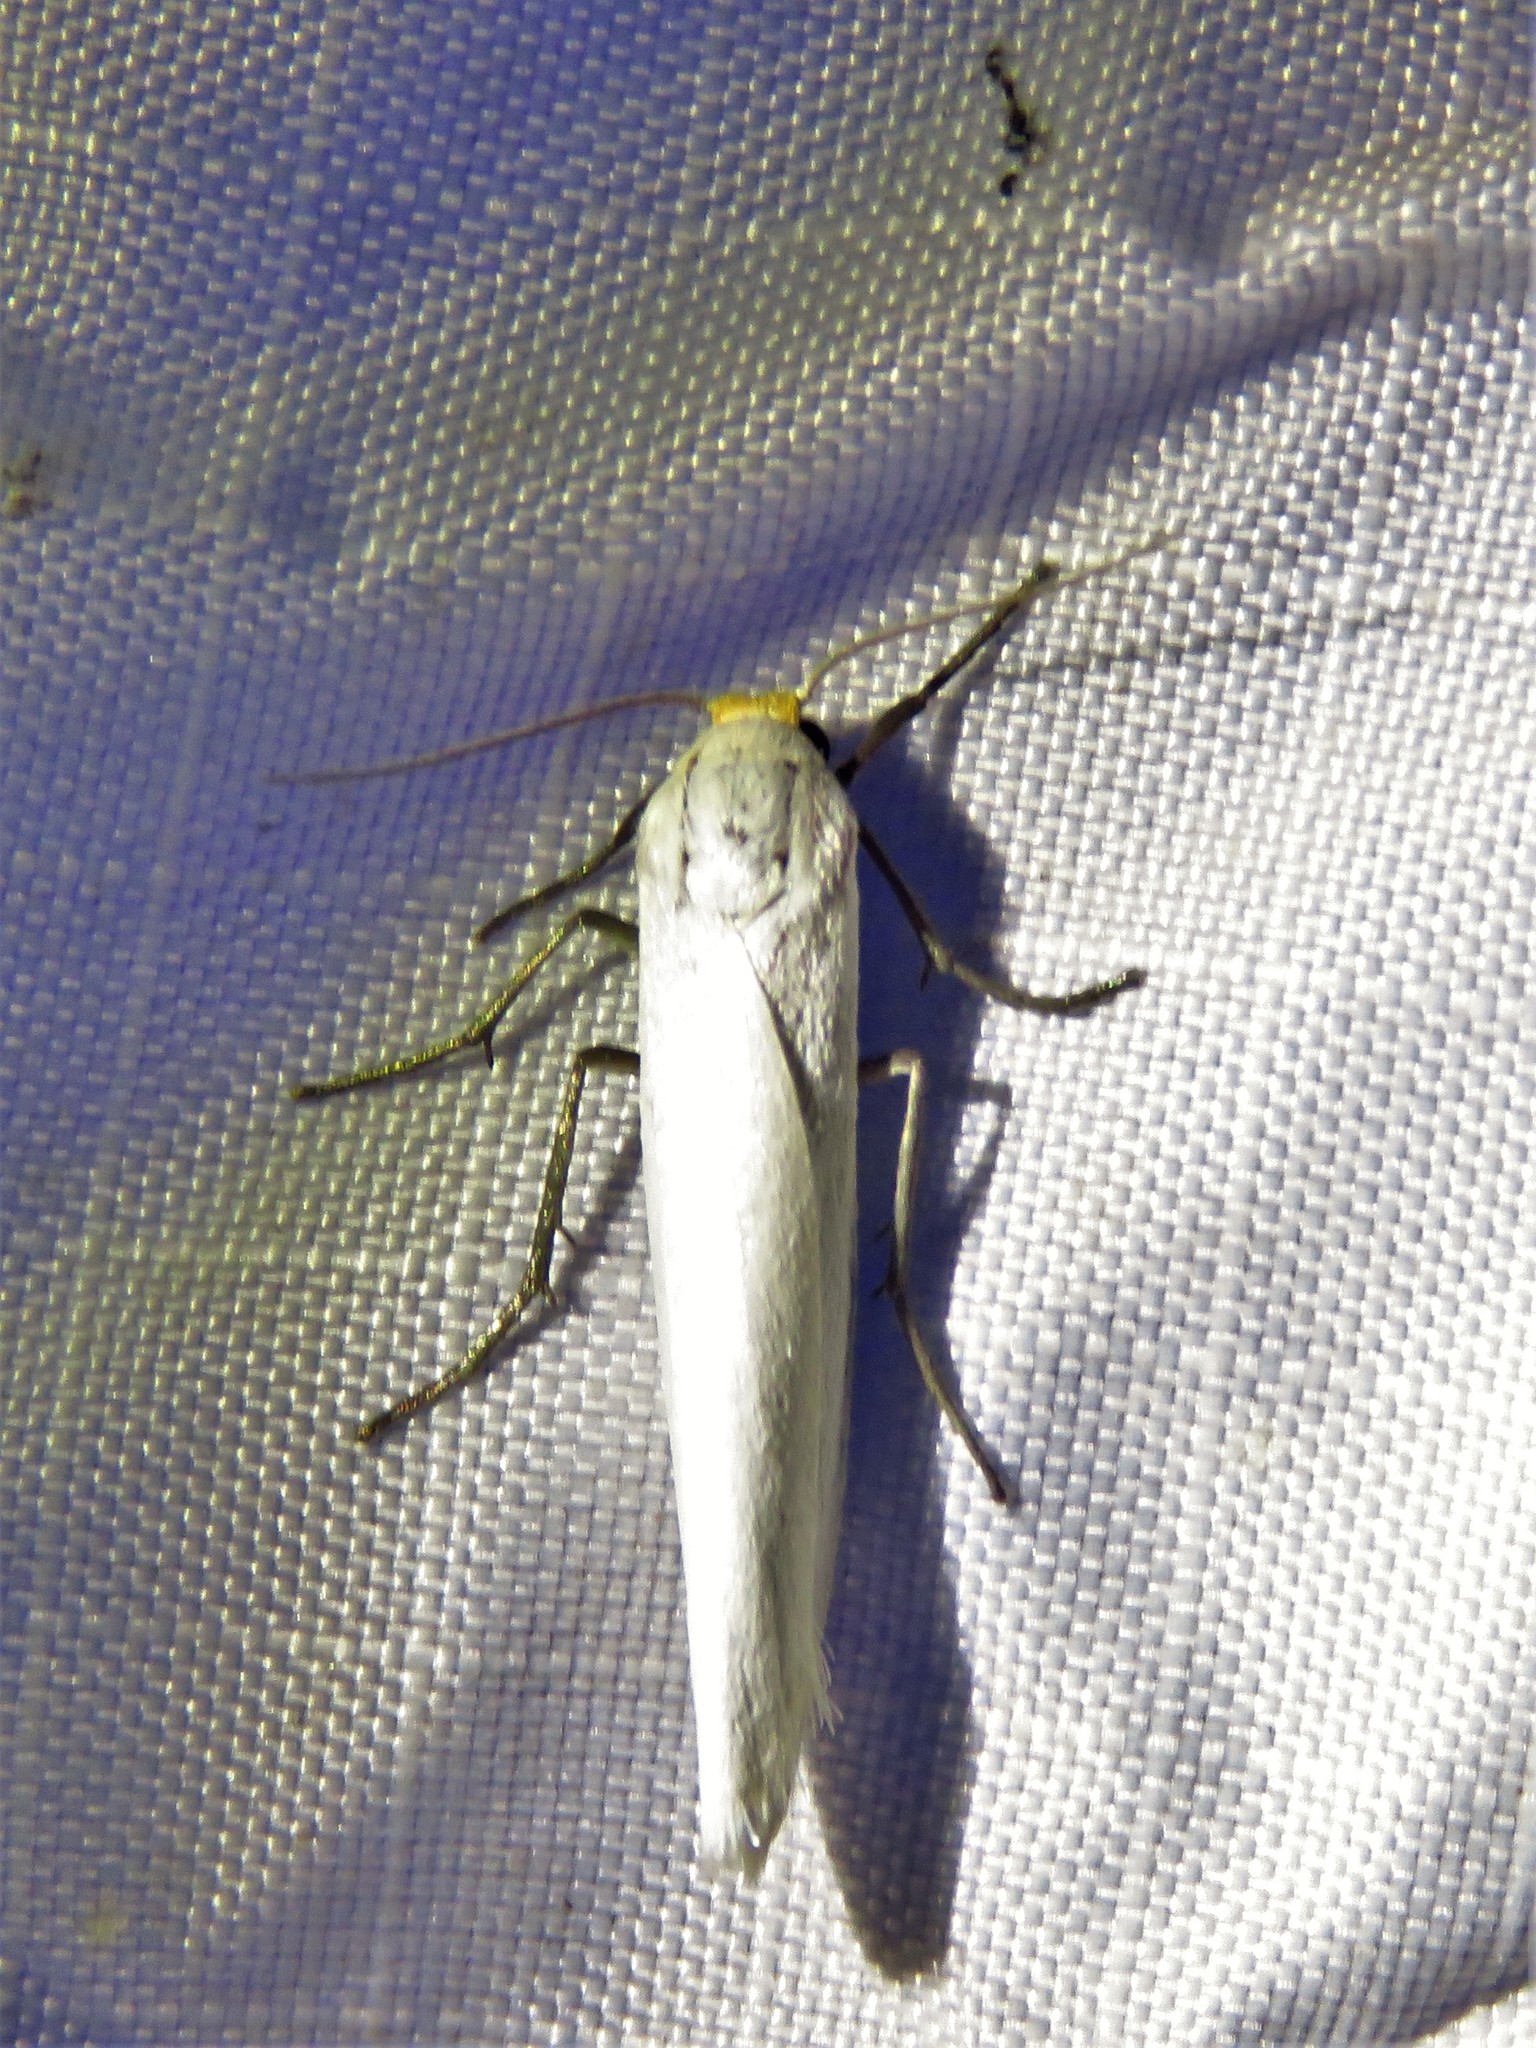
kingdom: Animalia
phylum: Arthropoda
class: Insecta
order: Lepidoptera
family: Erebidae
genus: Crambidia
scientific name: Crambidia cephalica
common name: Yellow-headed lichen moth
